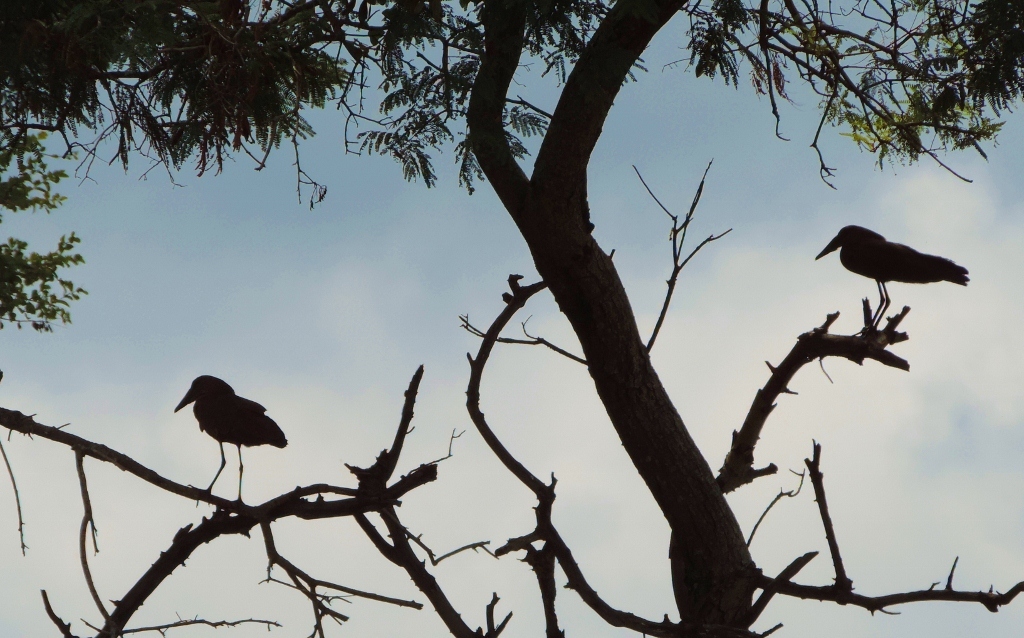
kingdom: Animalia
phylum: Chordata
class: Aves
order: Pelecaniformes
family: Scopidae
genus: Scopus
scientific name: Scopus umbretta
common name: Hamerkop
